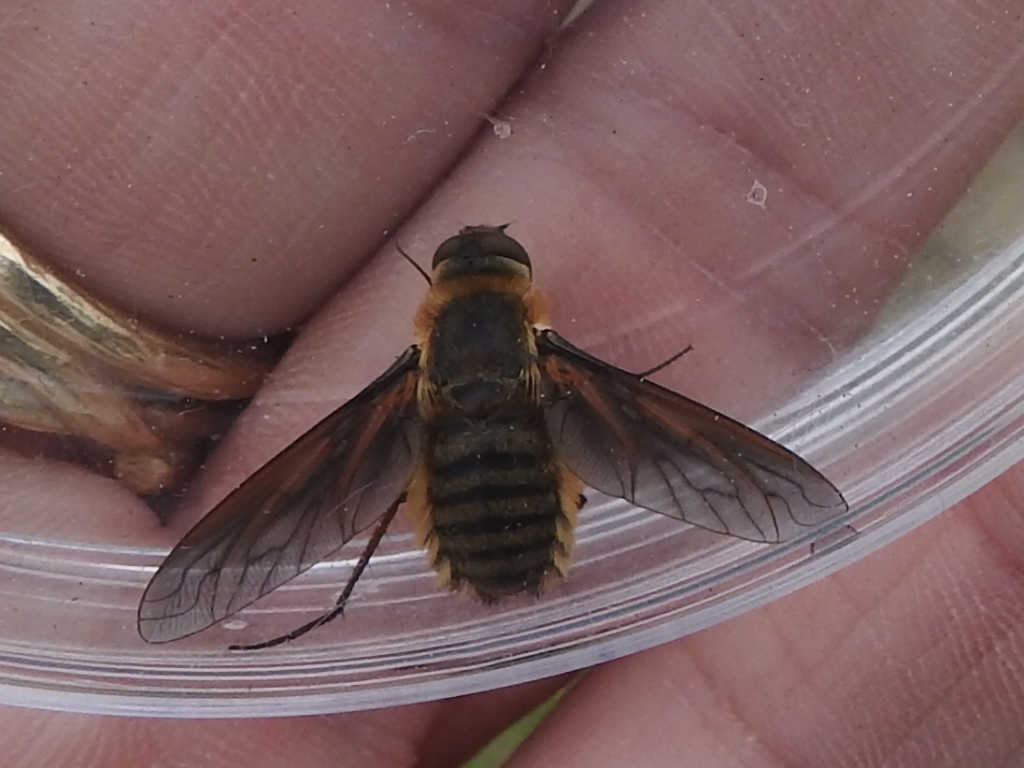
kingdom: Animalia
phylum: Arthropoda
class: Insecta
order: Diptera
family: Bombyliidae
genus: Poecilanthrax
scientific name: Poecilanthrax lucifer
